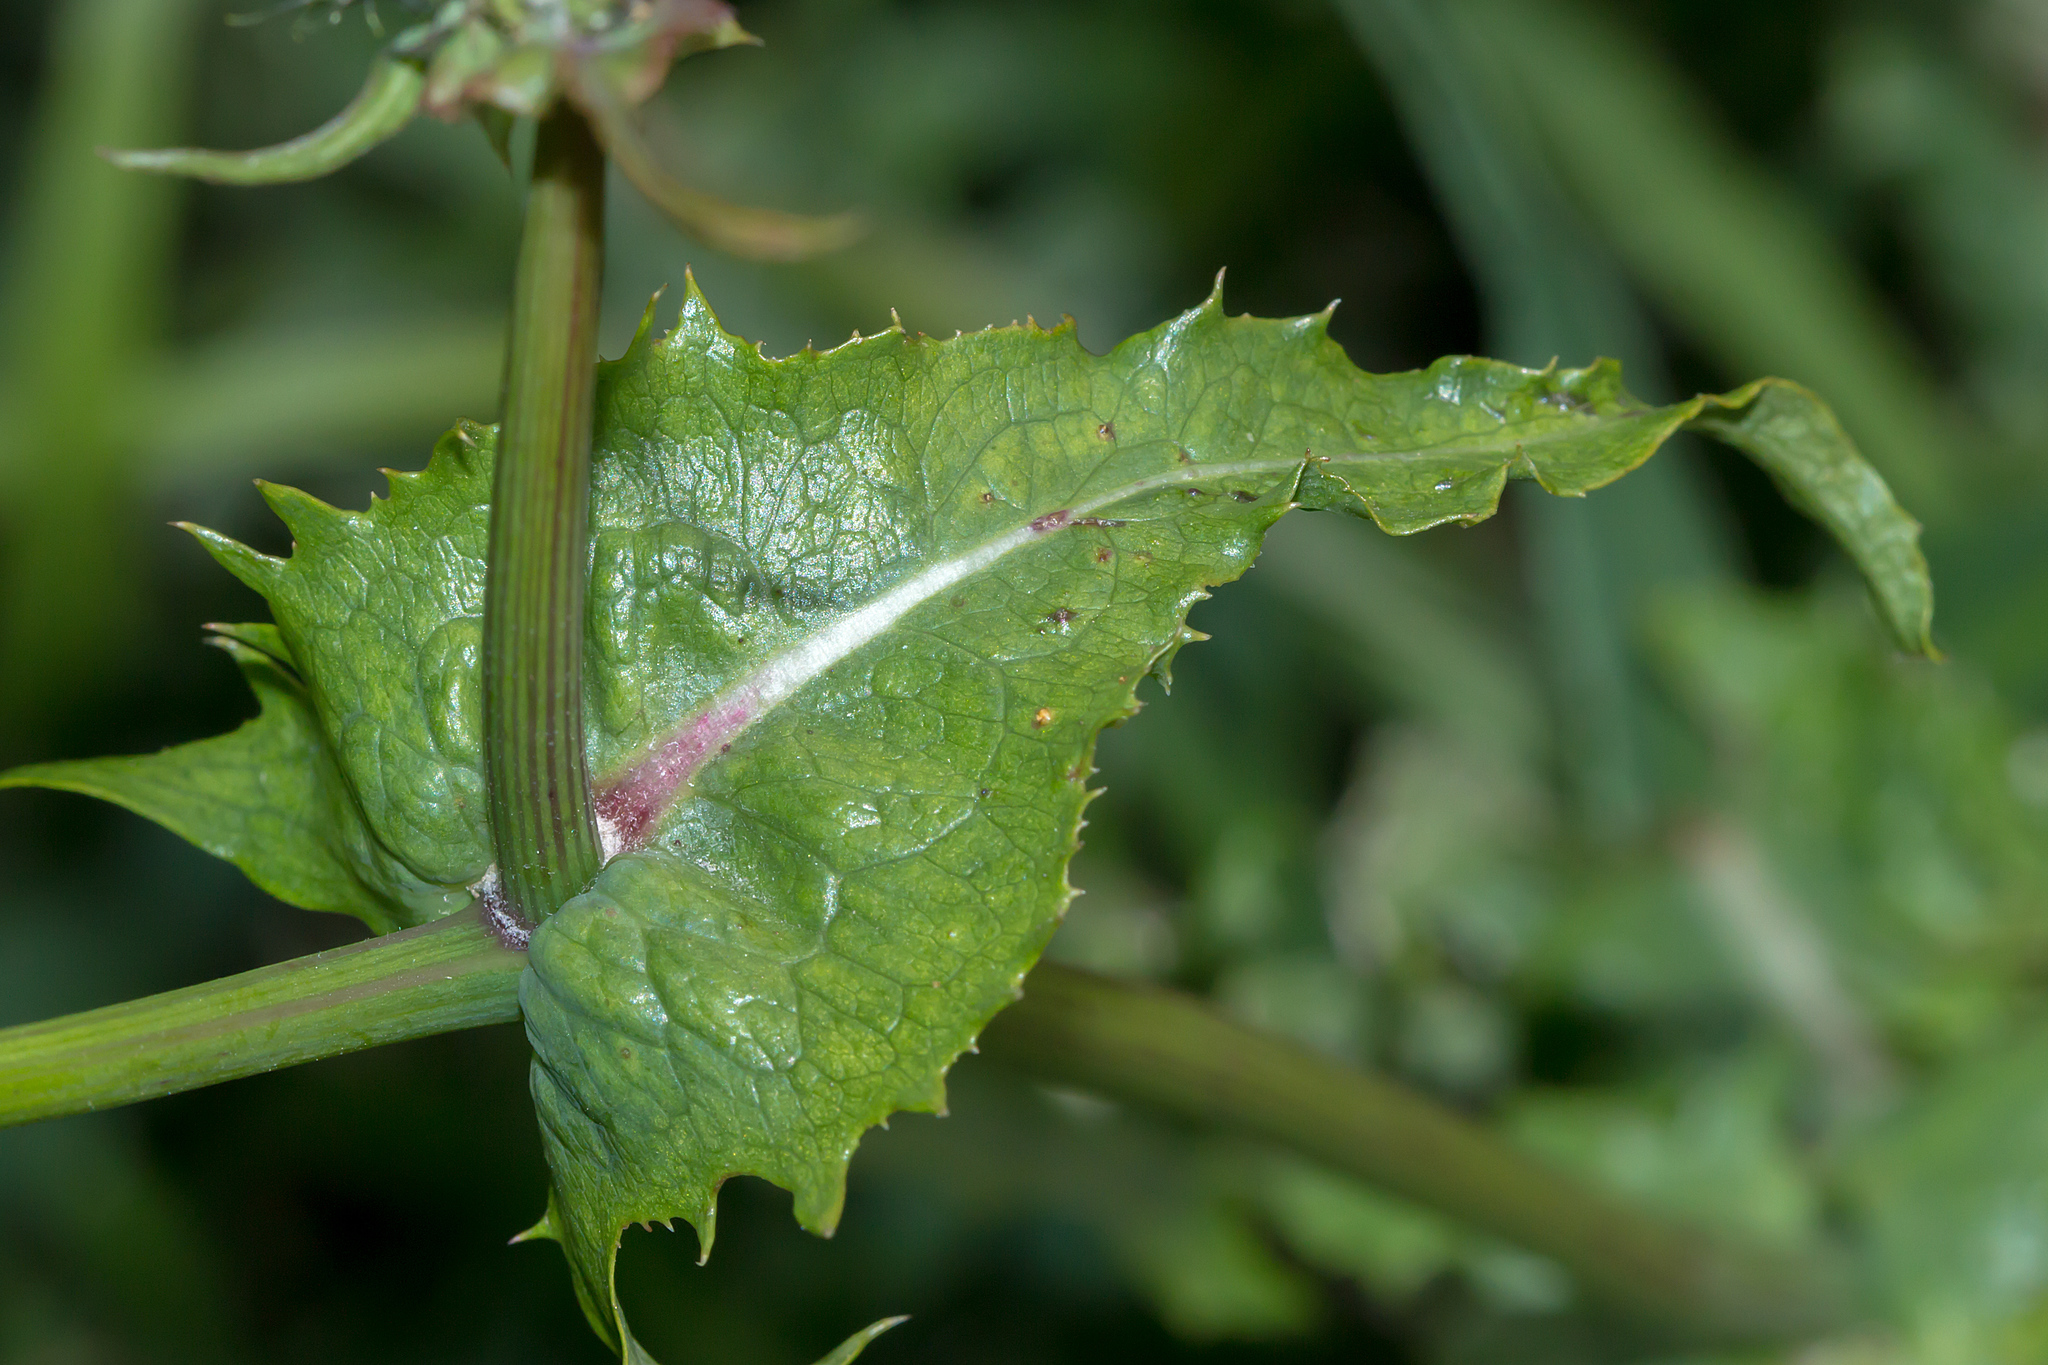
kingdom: Plantae
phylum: Tracheophyta
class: Magnoliopsida
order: Asterales
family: Asteraceae
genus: Sonchus
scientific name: Sonchus oleraceus
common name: Common sowthistle
